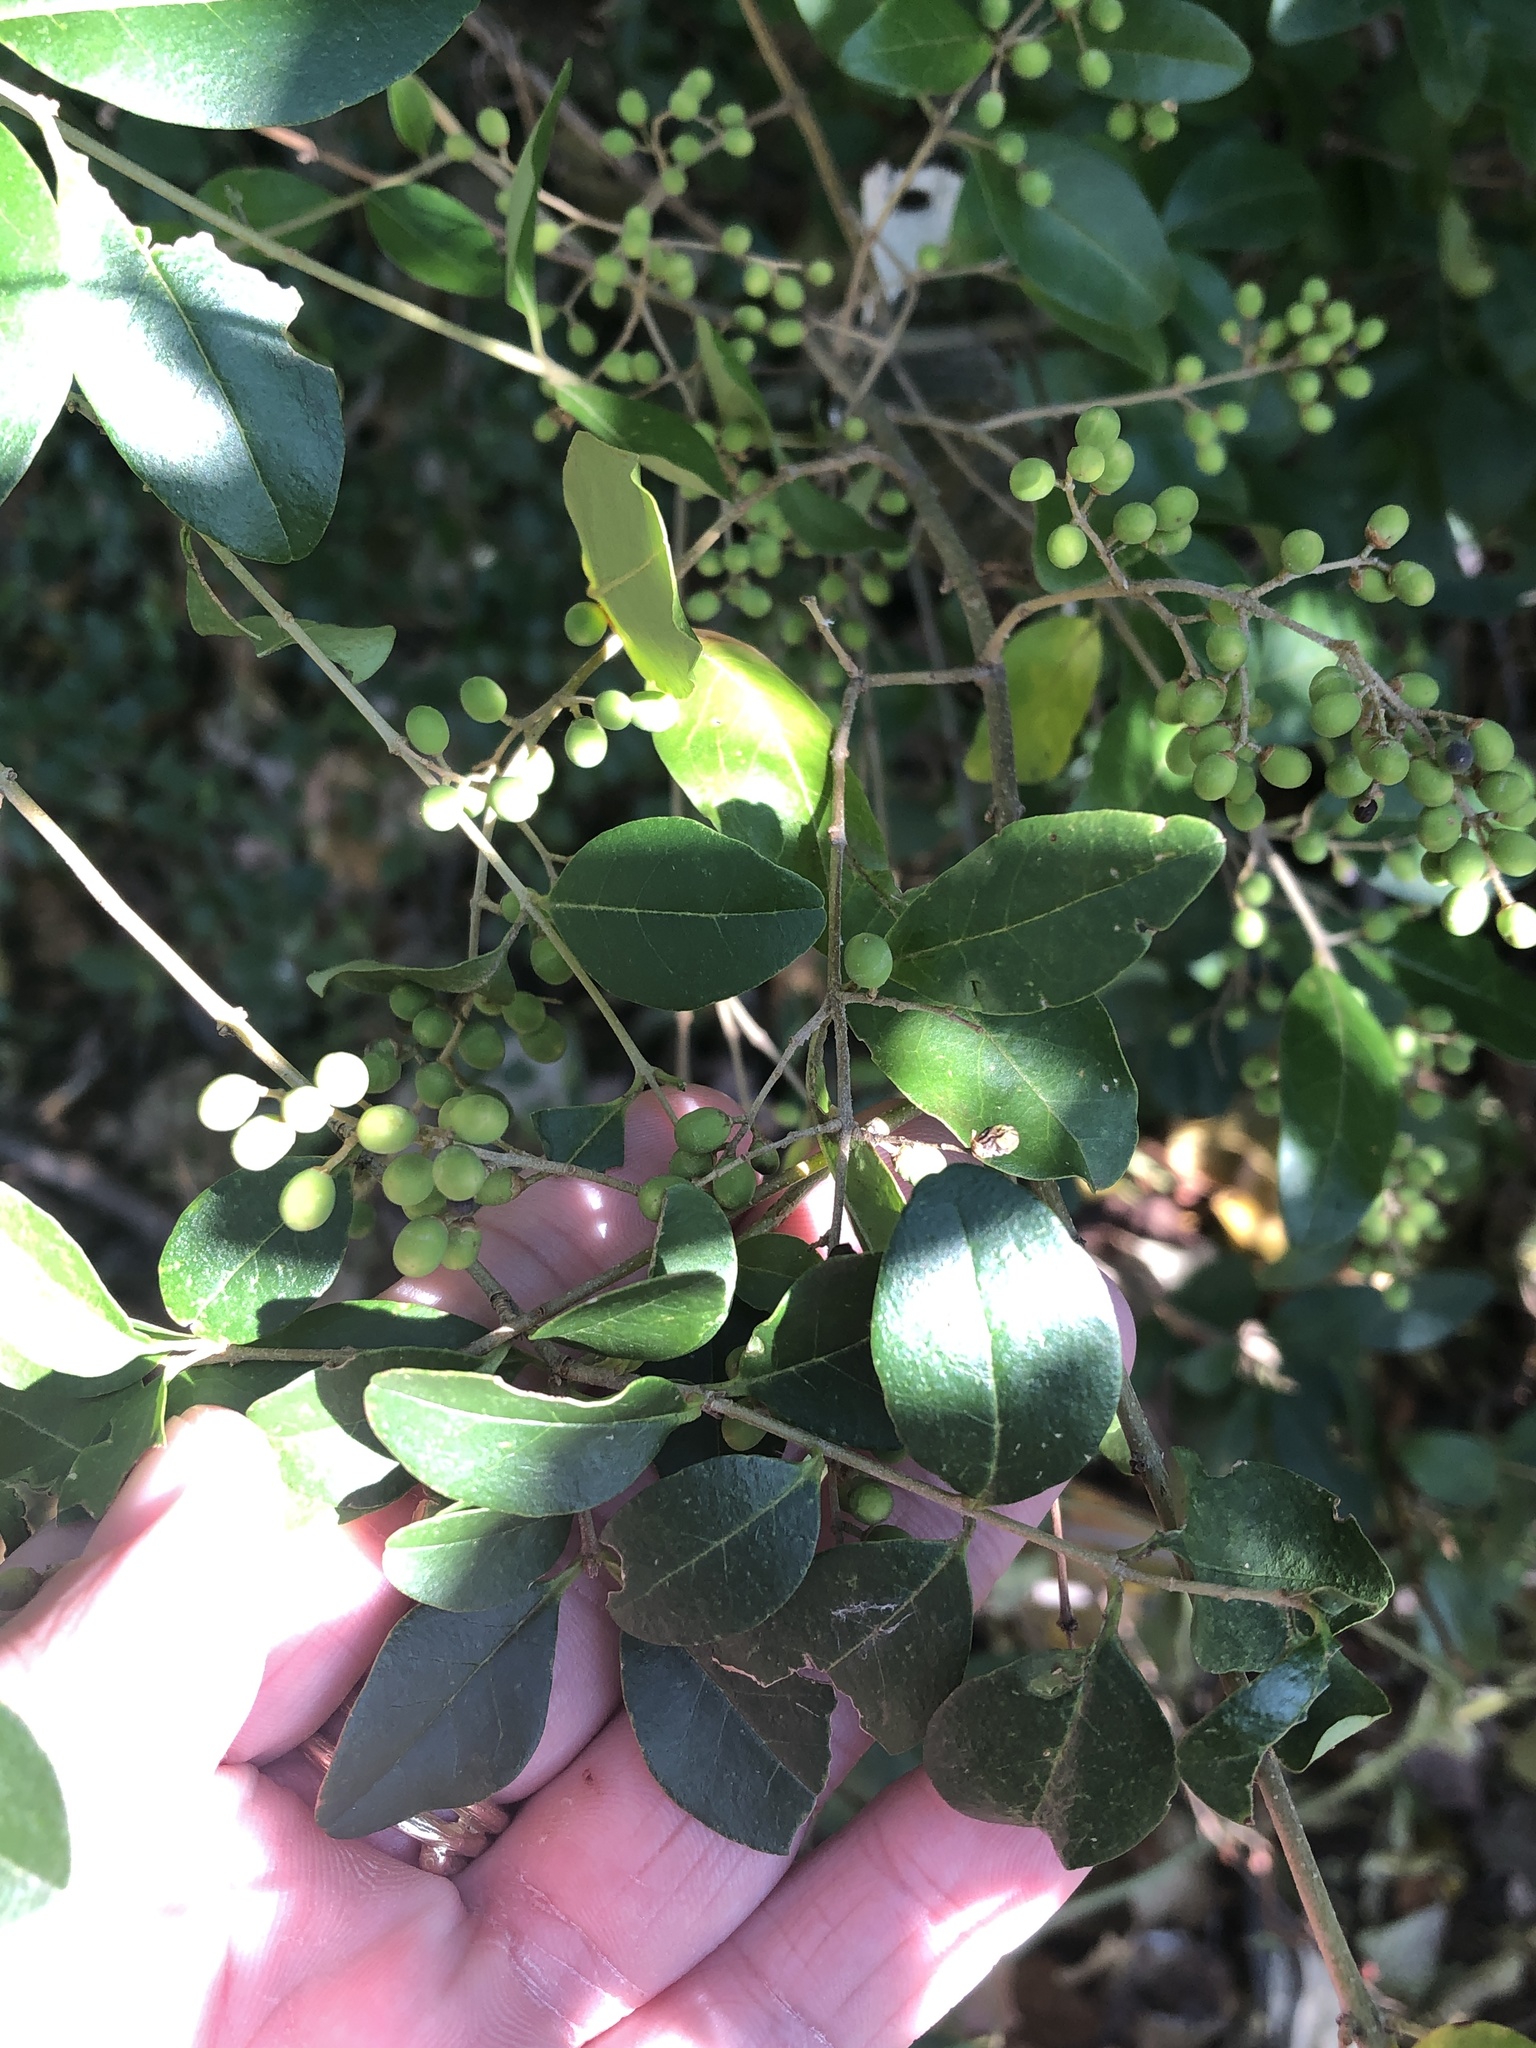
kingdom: Plantae
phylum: Tracheophyta
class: Magnoliopsida
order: Lamiales
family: Oleaceae
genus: Ligustrum
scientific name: Ligustrum sinense
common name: Chinese privet
